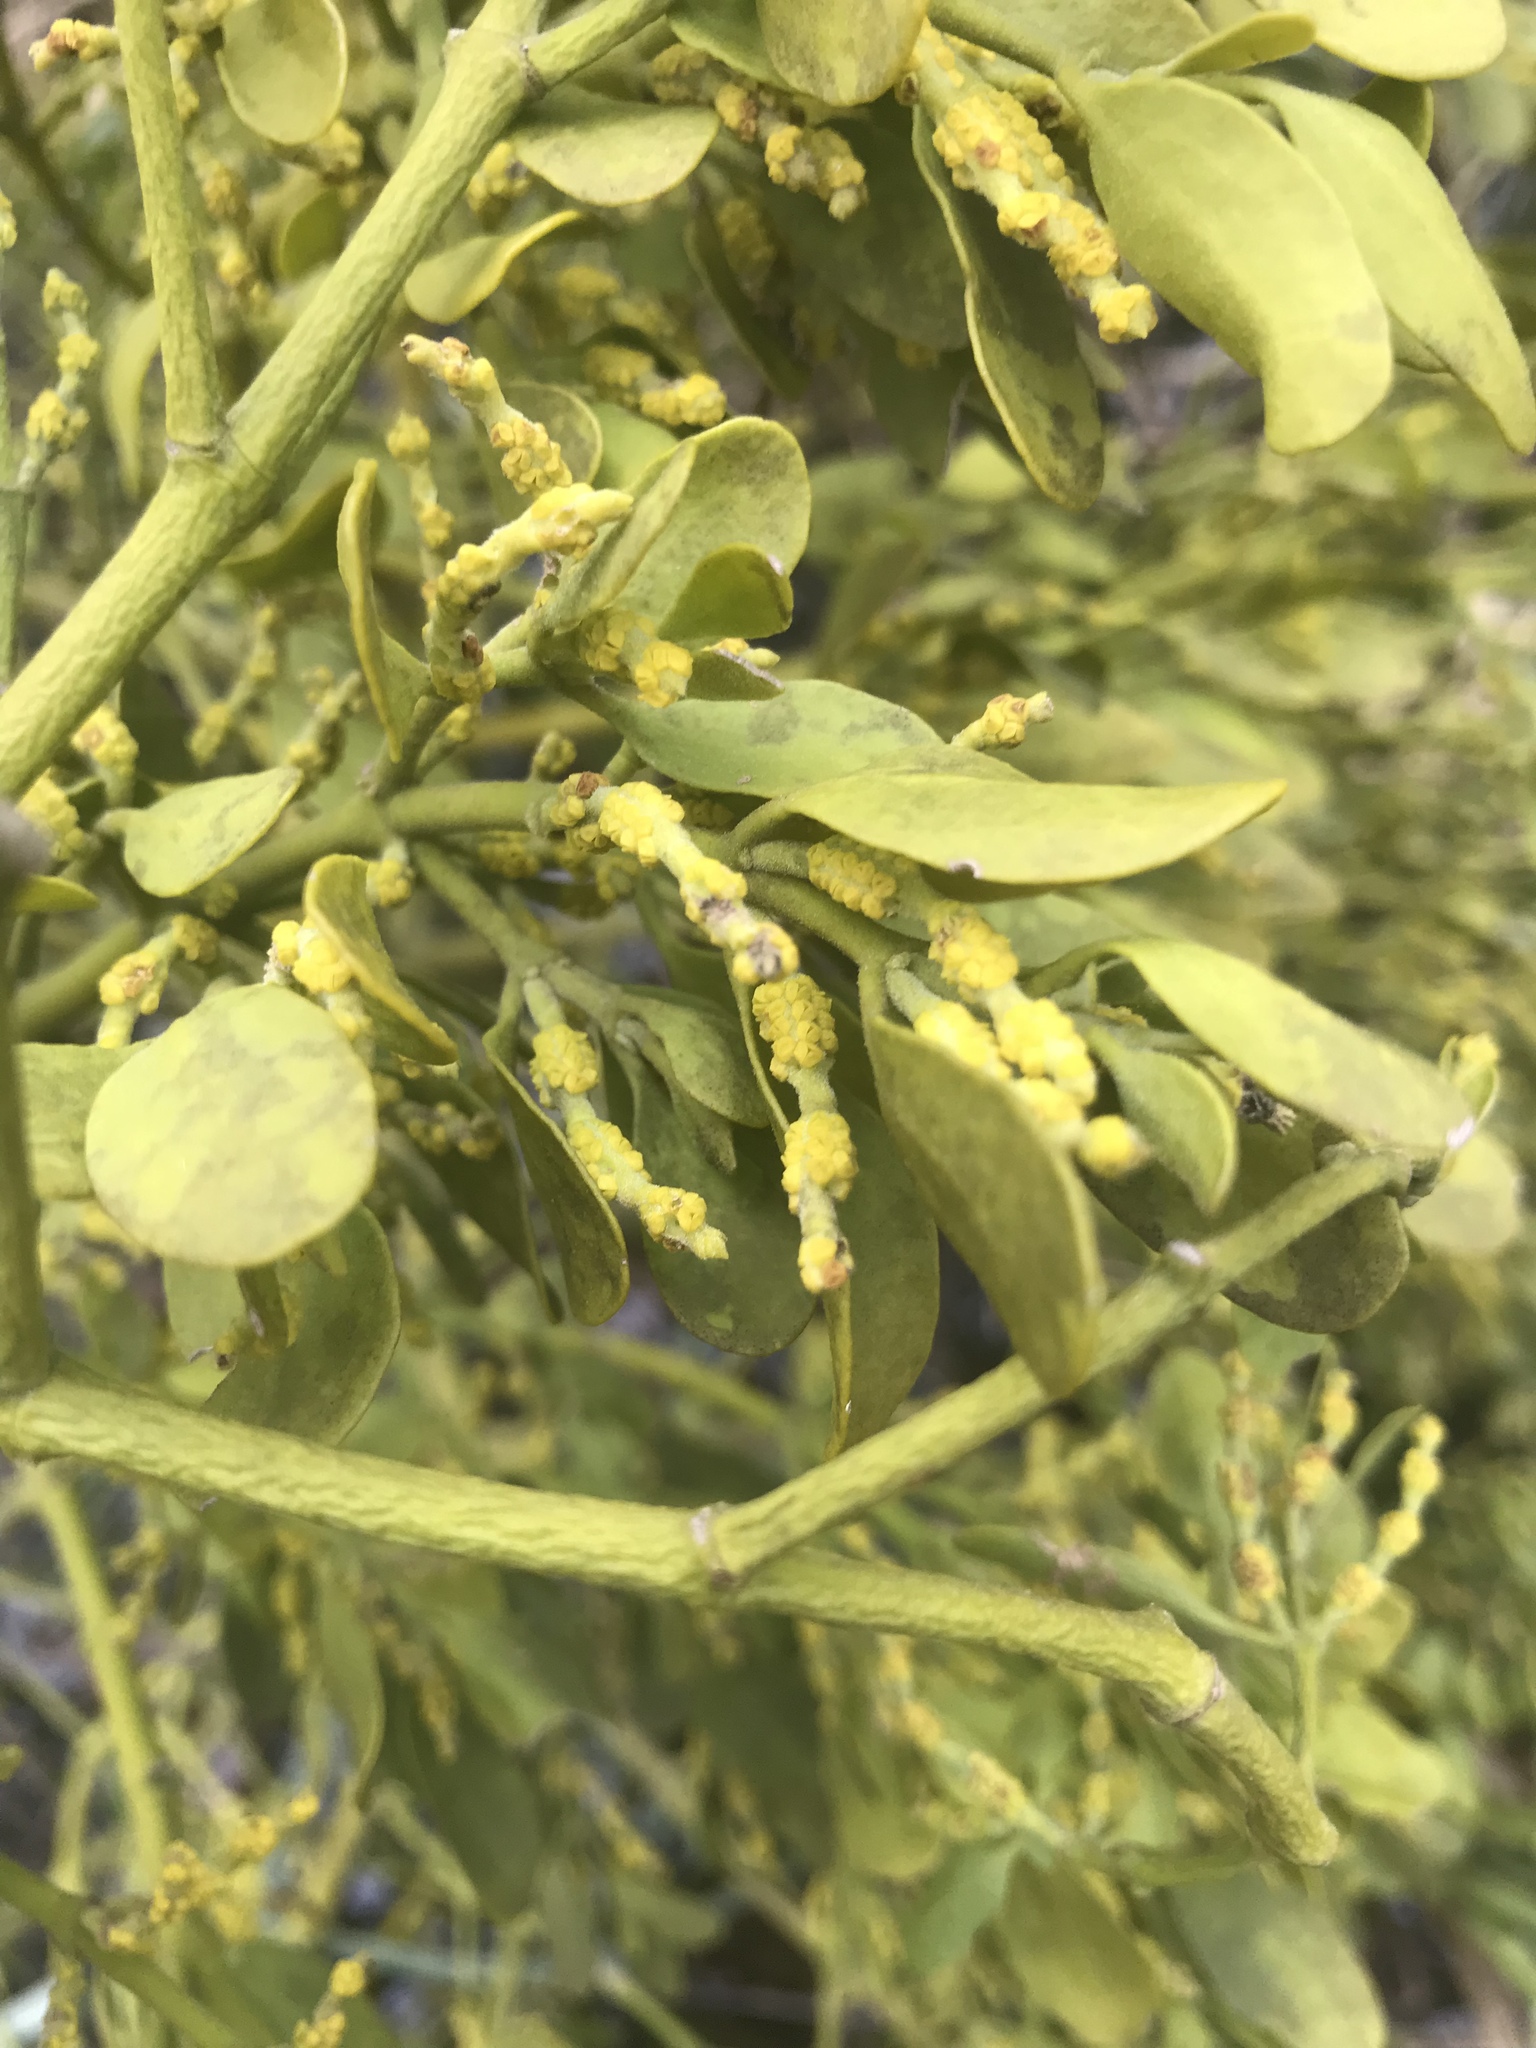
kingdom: Plantae
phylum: Tracheophyta
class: Magnoliopsida
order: Santalales
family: Viscaceae
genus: Phoradendron
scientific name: Phoradendron leucarpum
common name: Pacific mistletoe
